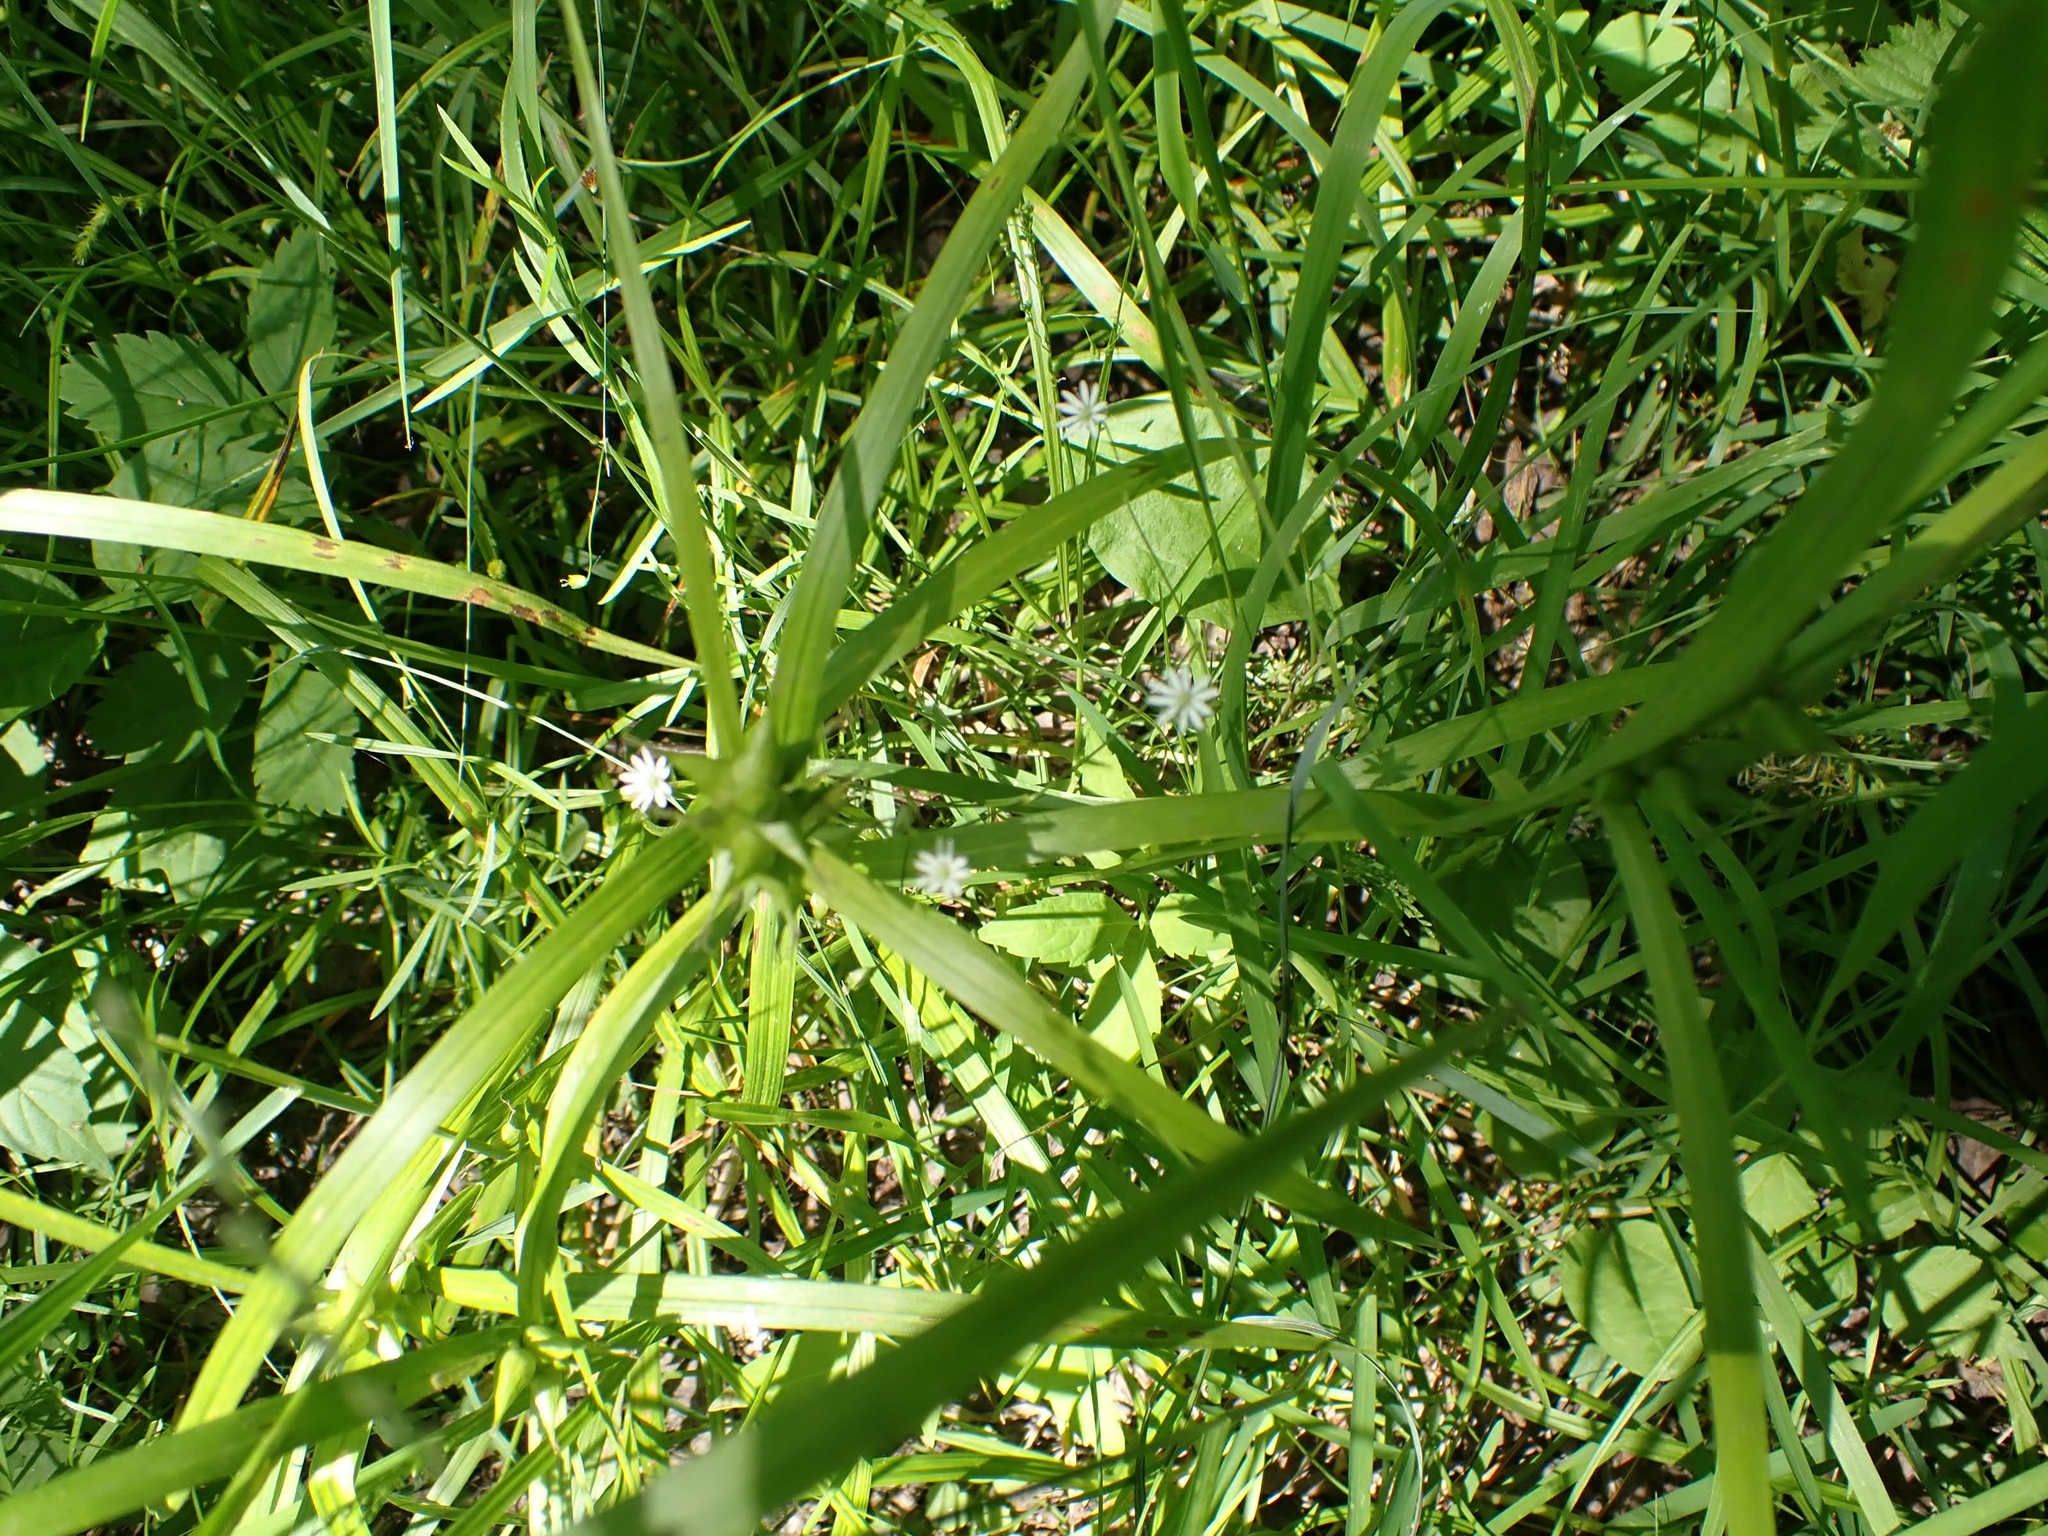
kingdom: Plantae
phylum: Tracheophyta
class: Magnoliopsida
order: Caryophyllales
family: Caryophyllaceae
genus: Stellaria
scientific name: Stellaria longifolia
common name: Long-leaved chickweed
